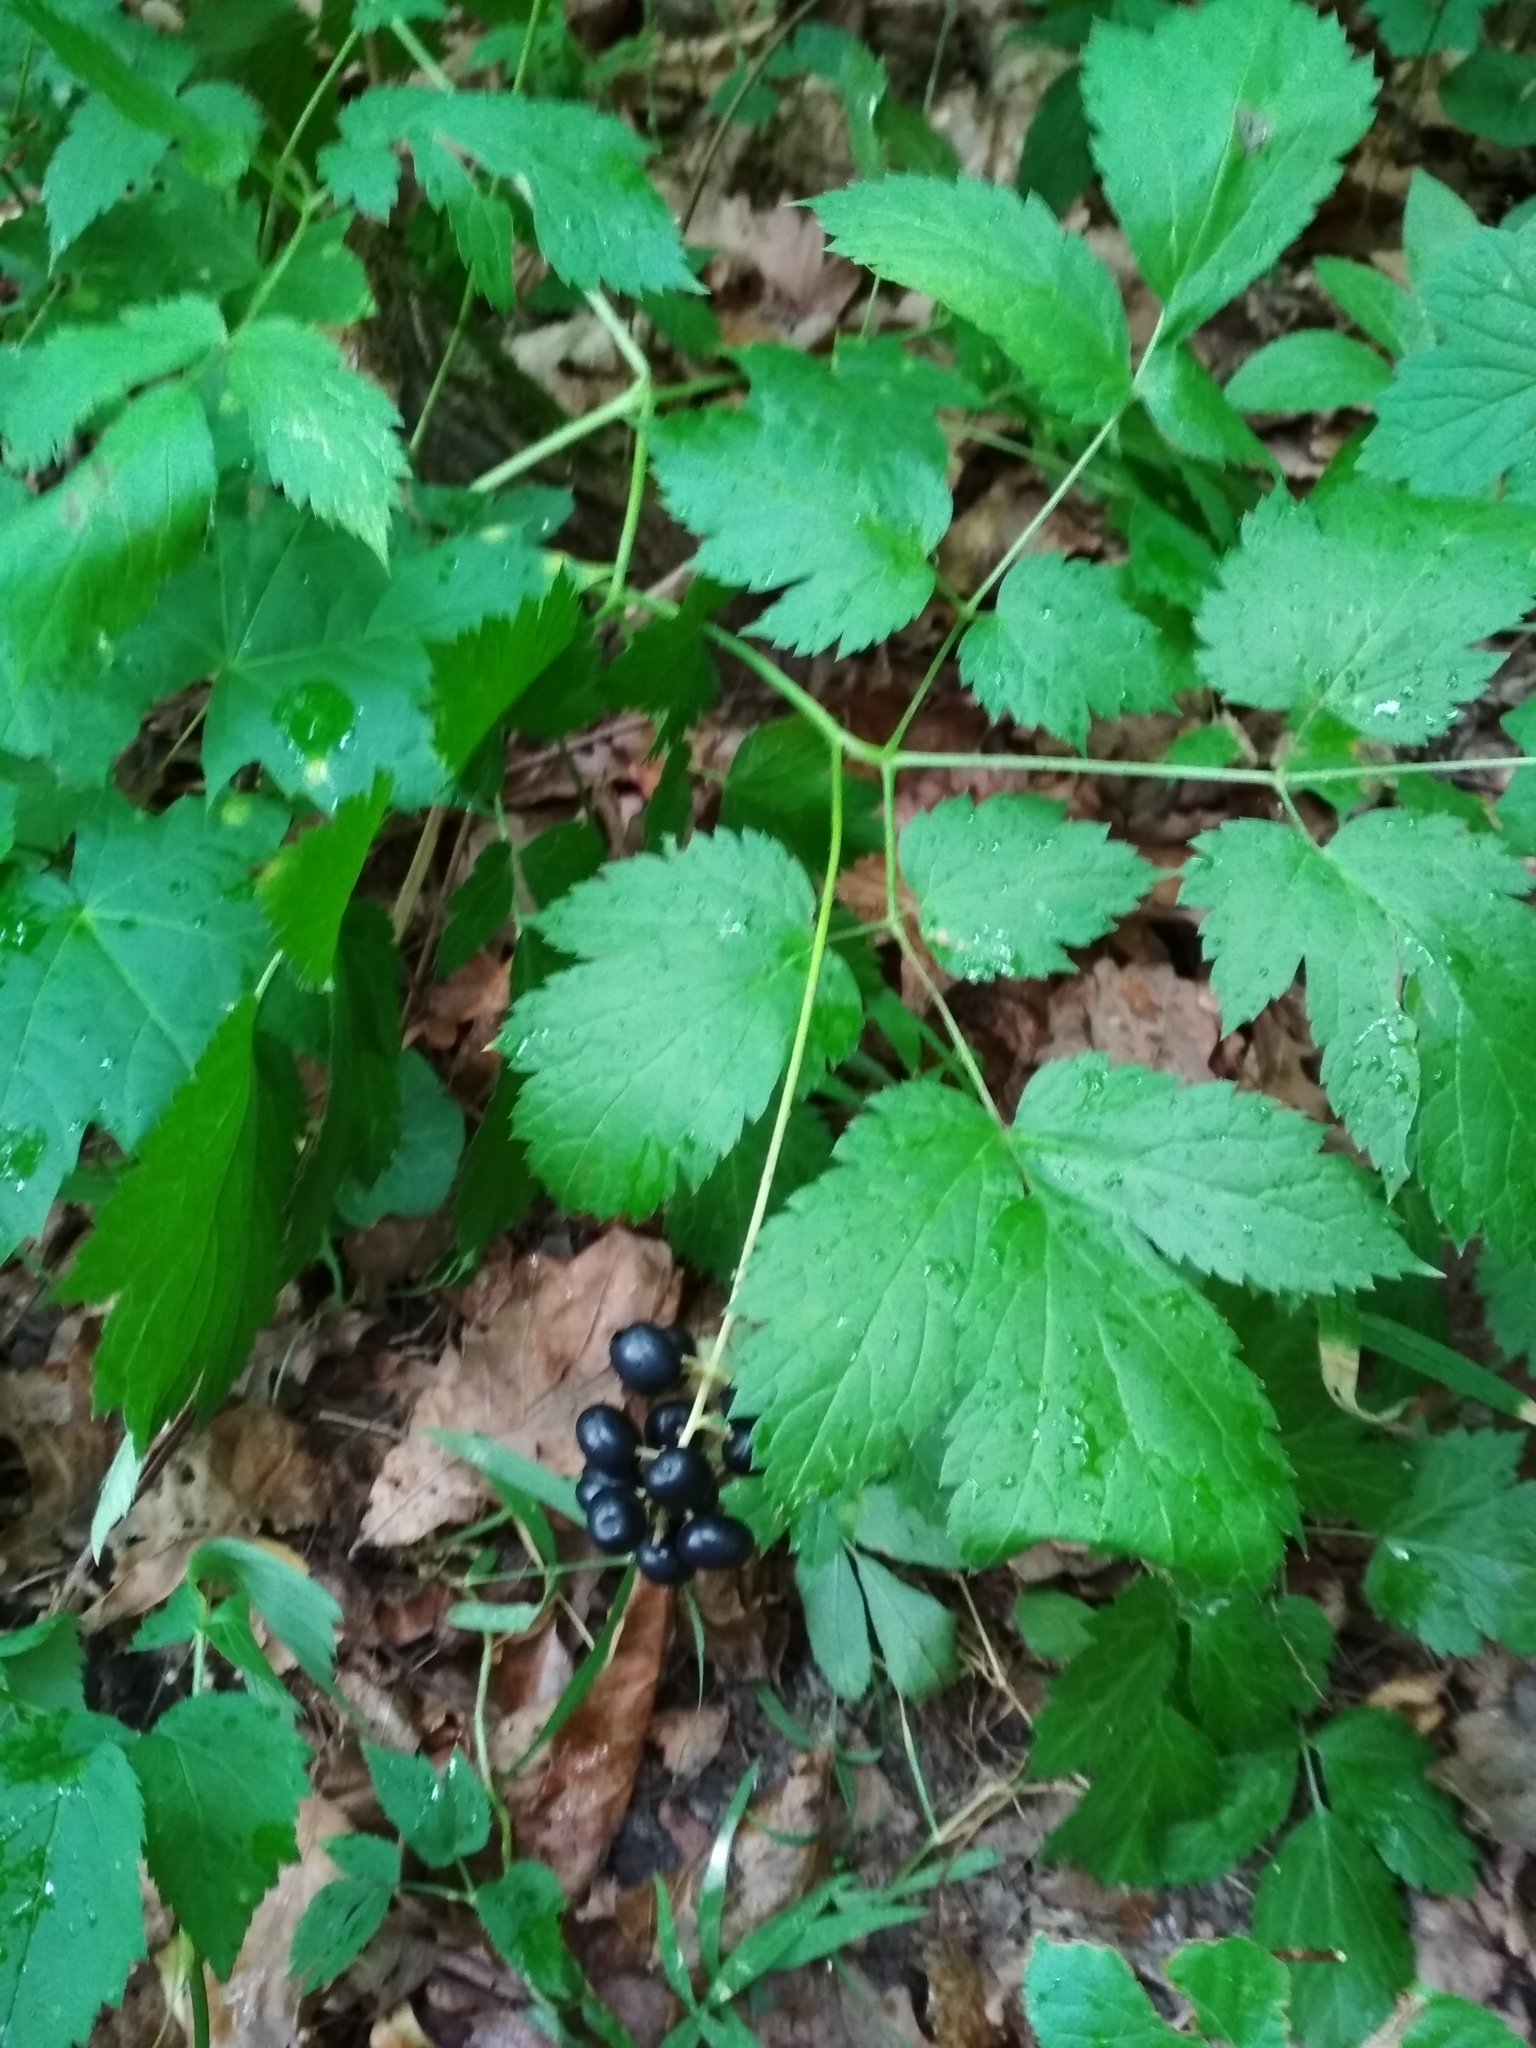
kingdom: Plantae
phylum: Tracheophyta
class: Magnoliopsida
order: Ranunculales
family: Ranunculaceae
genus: Actaea
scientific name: Actaea spicata
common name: Baneberry
